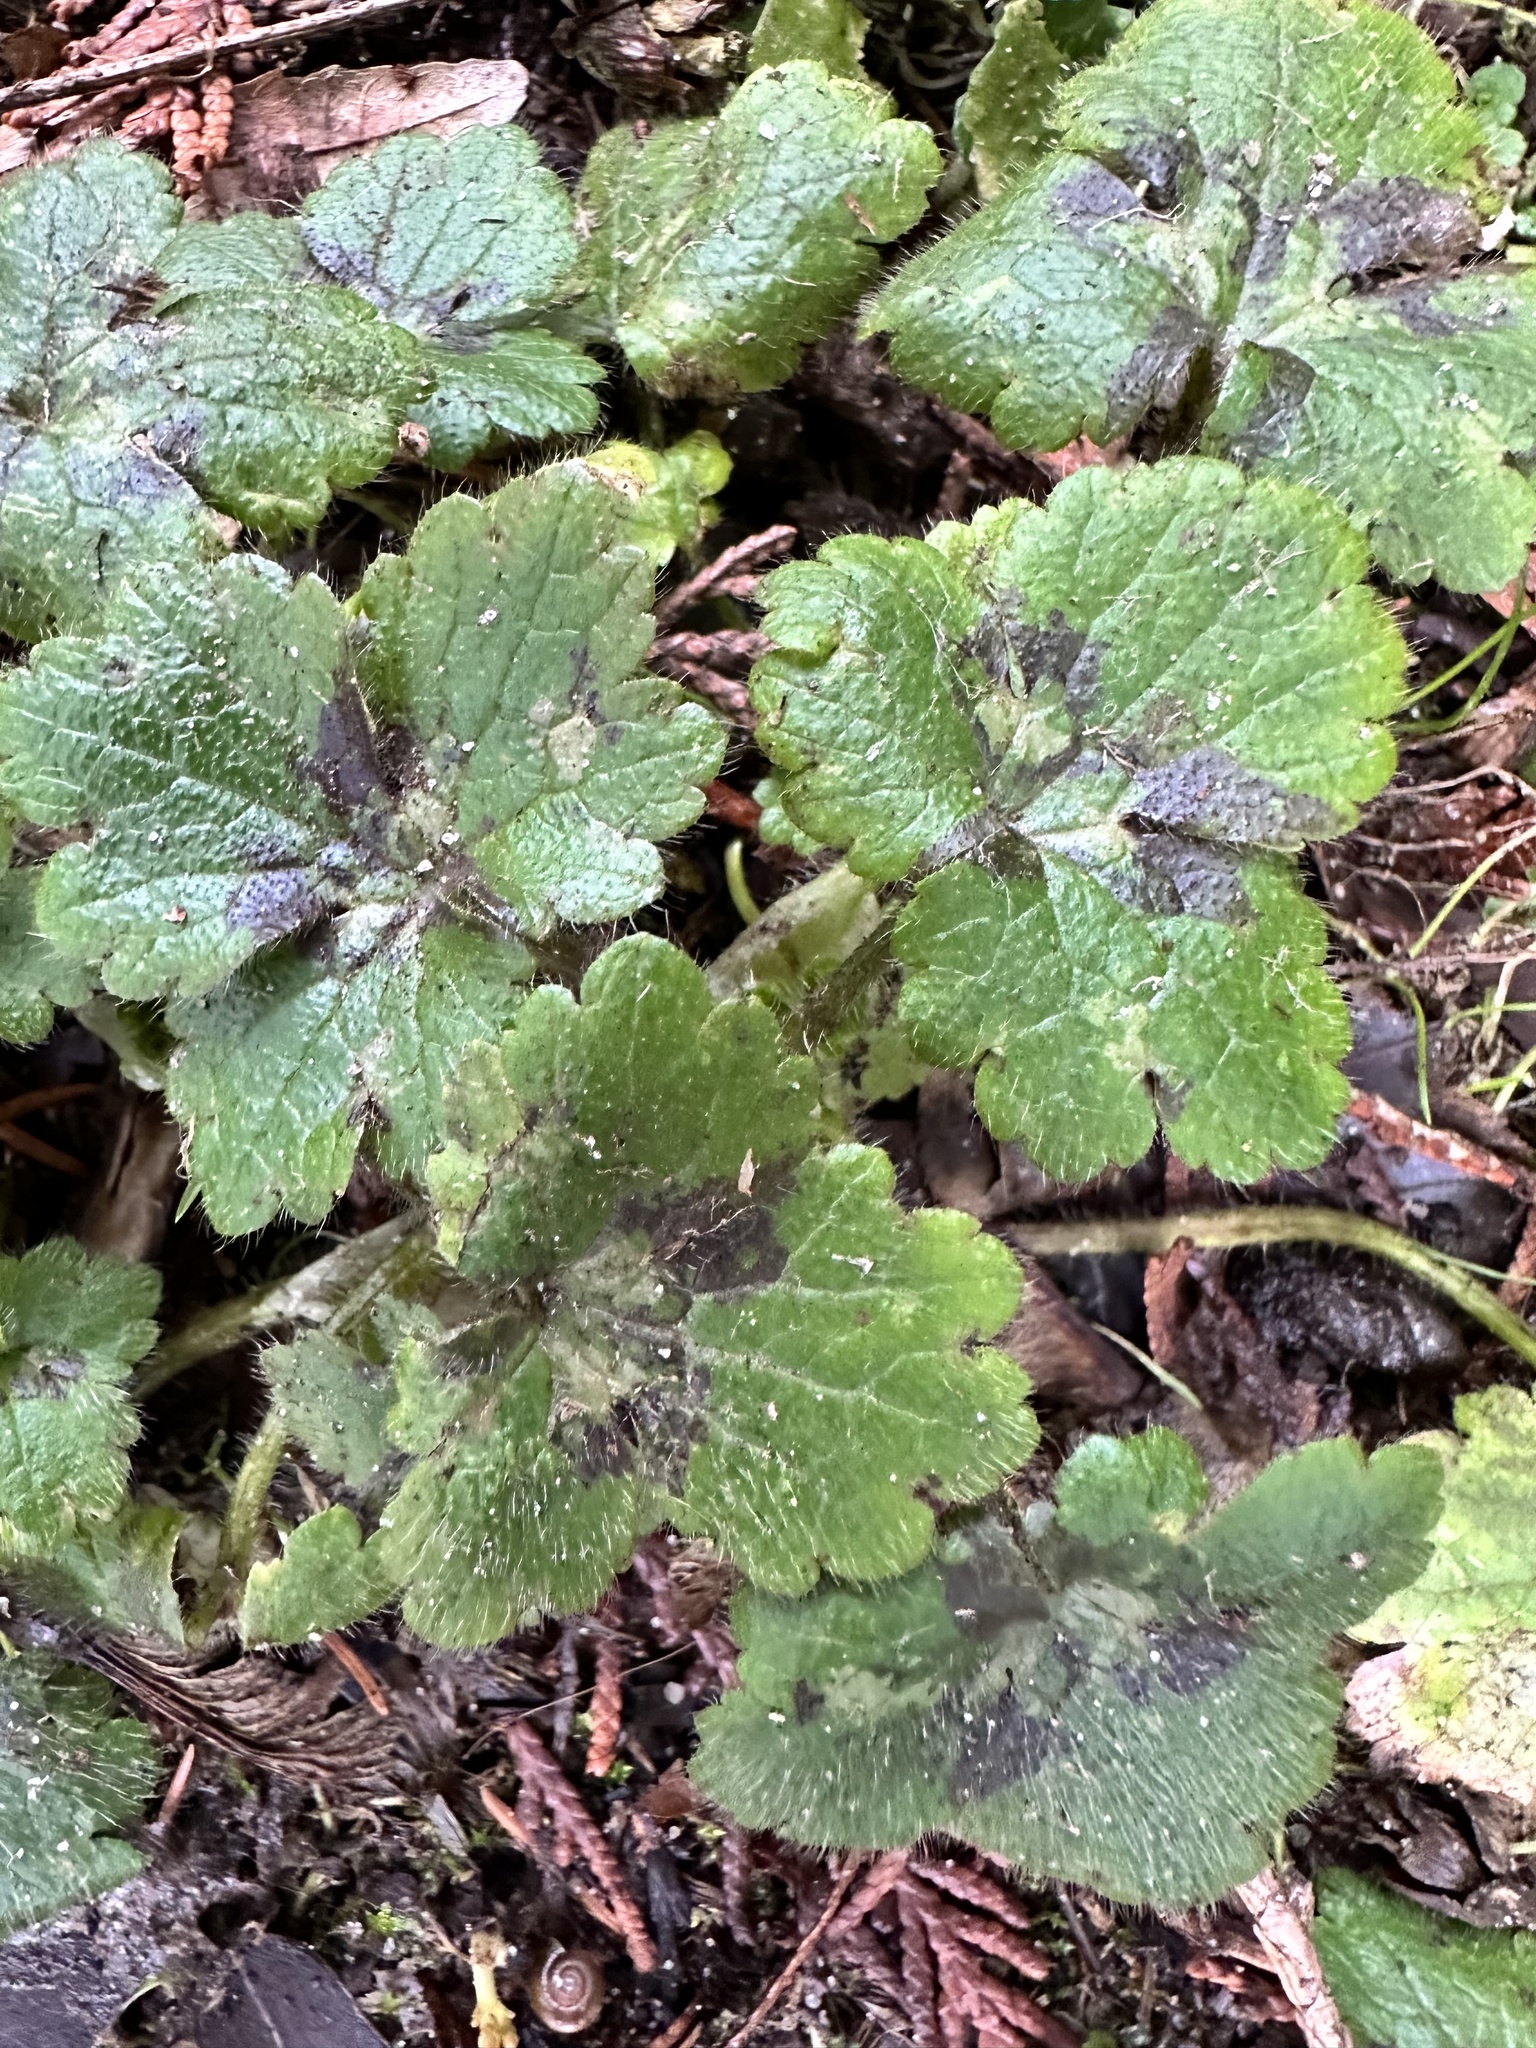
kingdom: Plantae
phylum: Tracheophyta
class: Magnoliopsida
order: Ranunculales
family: Ranunculaceae
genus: Ranunculus
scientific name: Ranunculus lanuginosus
